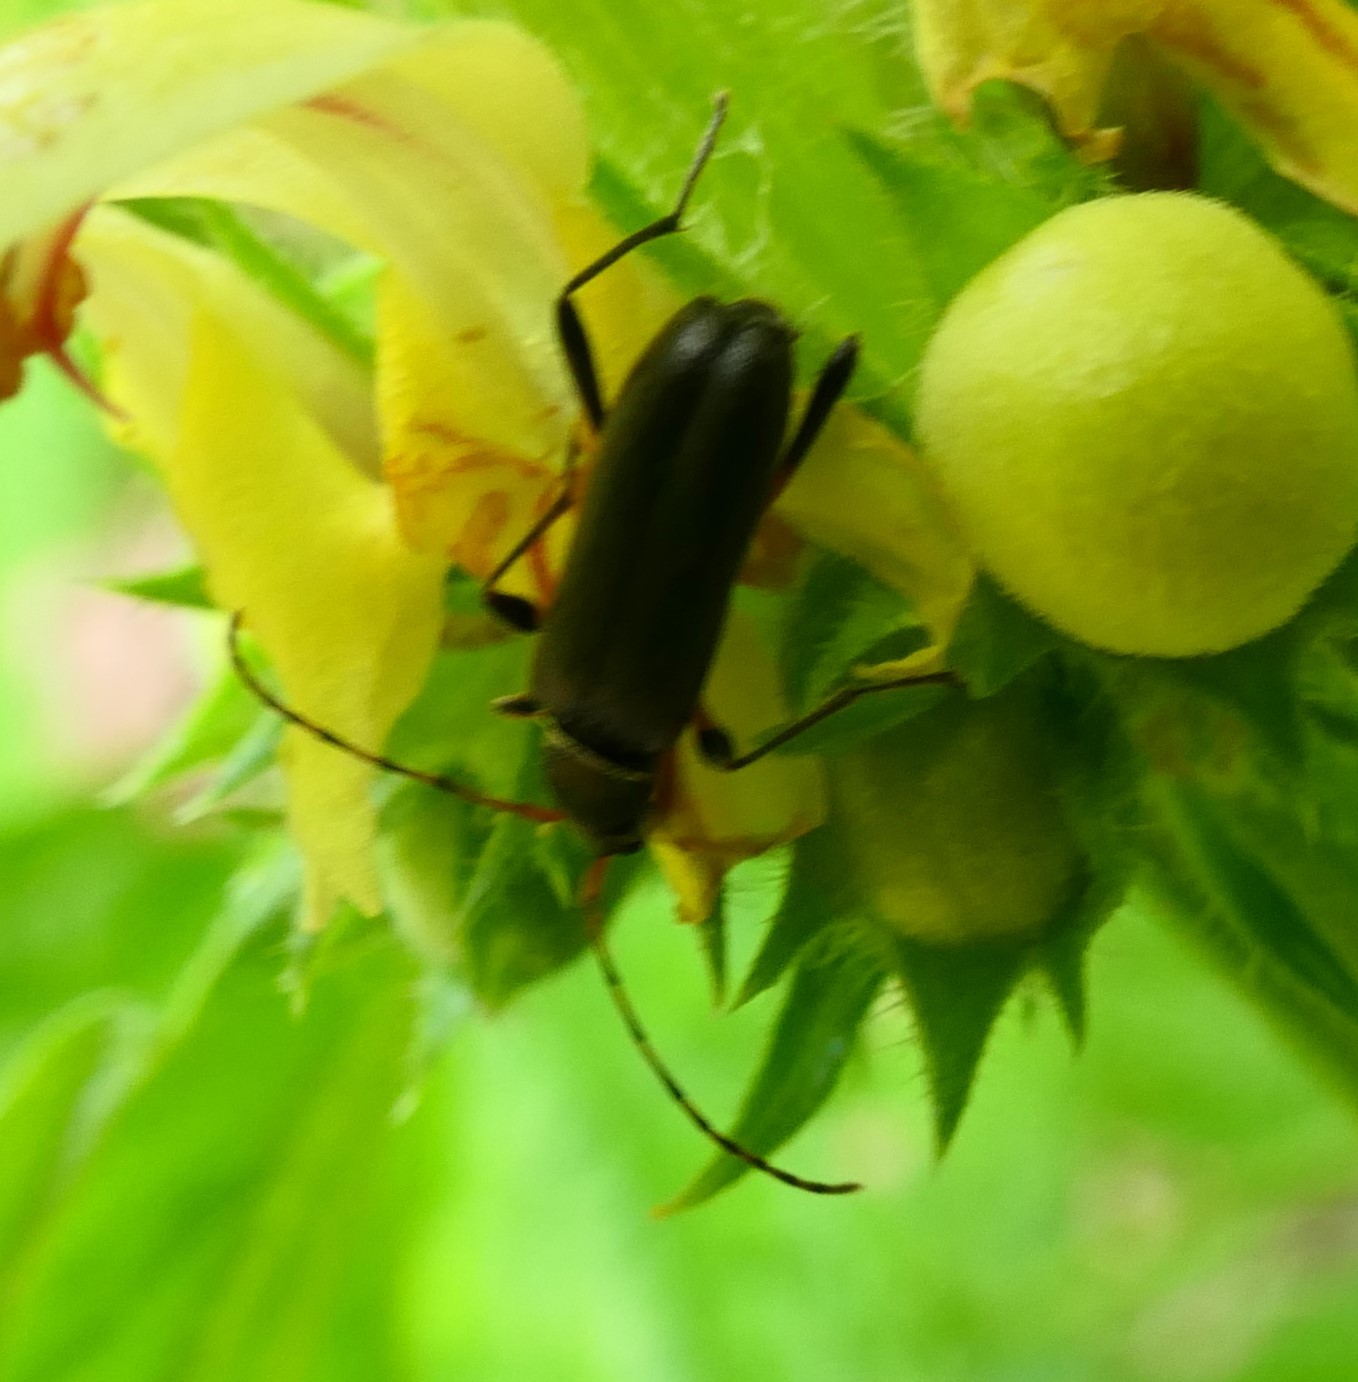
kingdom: Animalia
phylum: Arthropoda
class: Insecta
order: Coleoptera
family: Cerambycidae
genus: Grammoptera
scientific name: Grammoptera ruficornis
